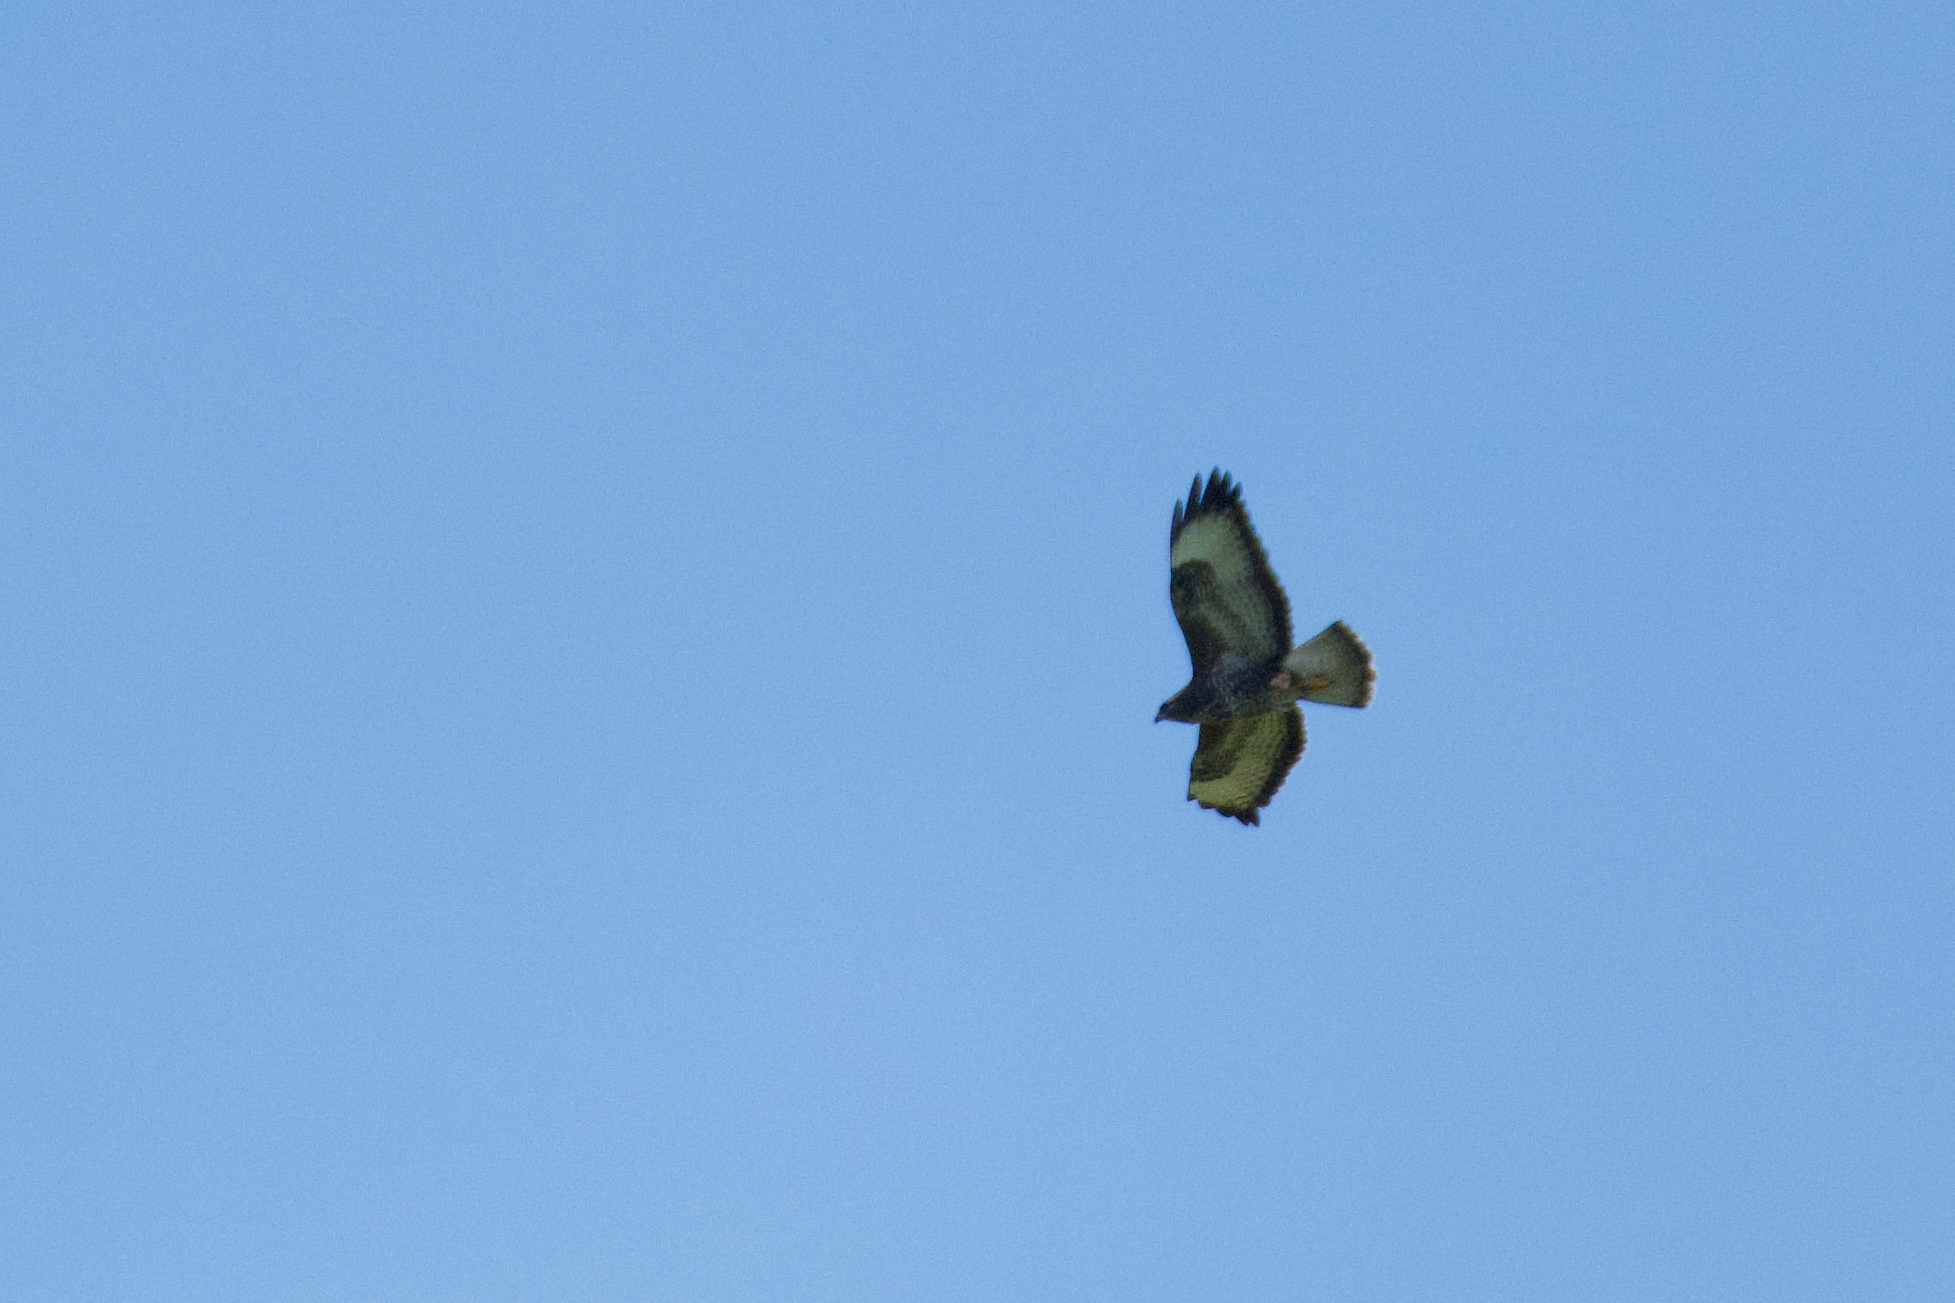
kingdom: Animalia
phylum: Chordata
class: Aves
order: Accipitriformes
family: Accipitridae
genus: Buteo
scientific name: Buteo buteo
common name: Common buzzard
